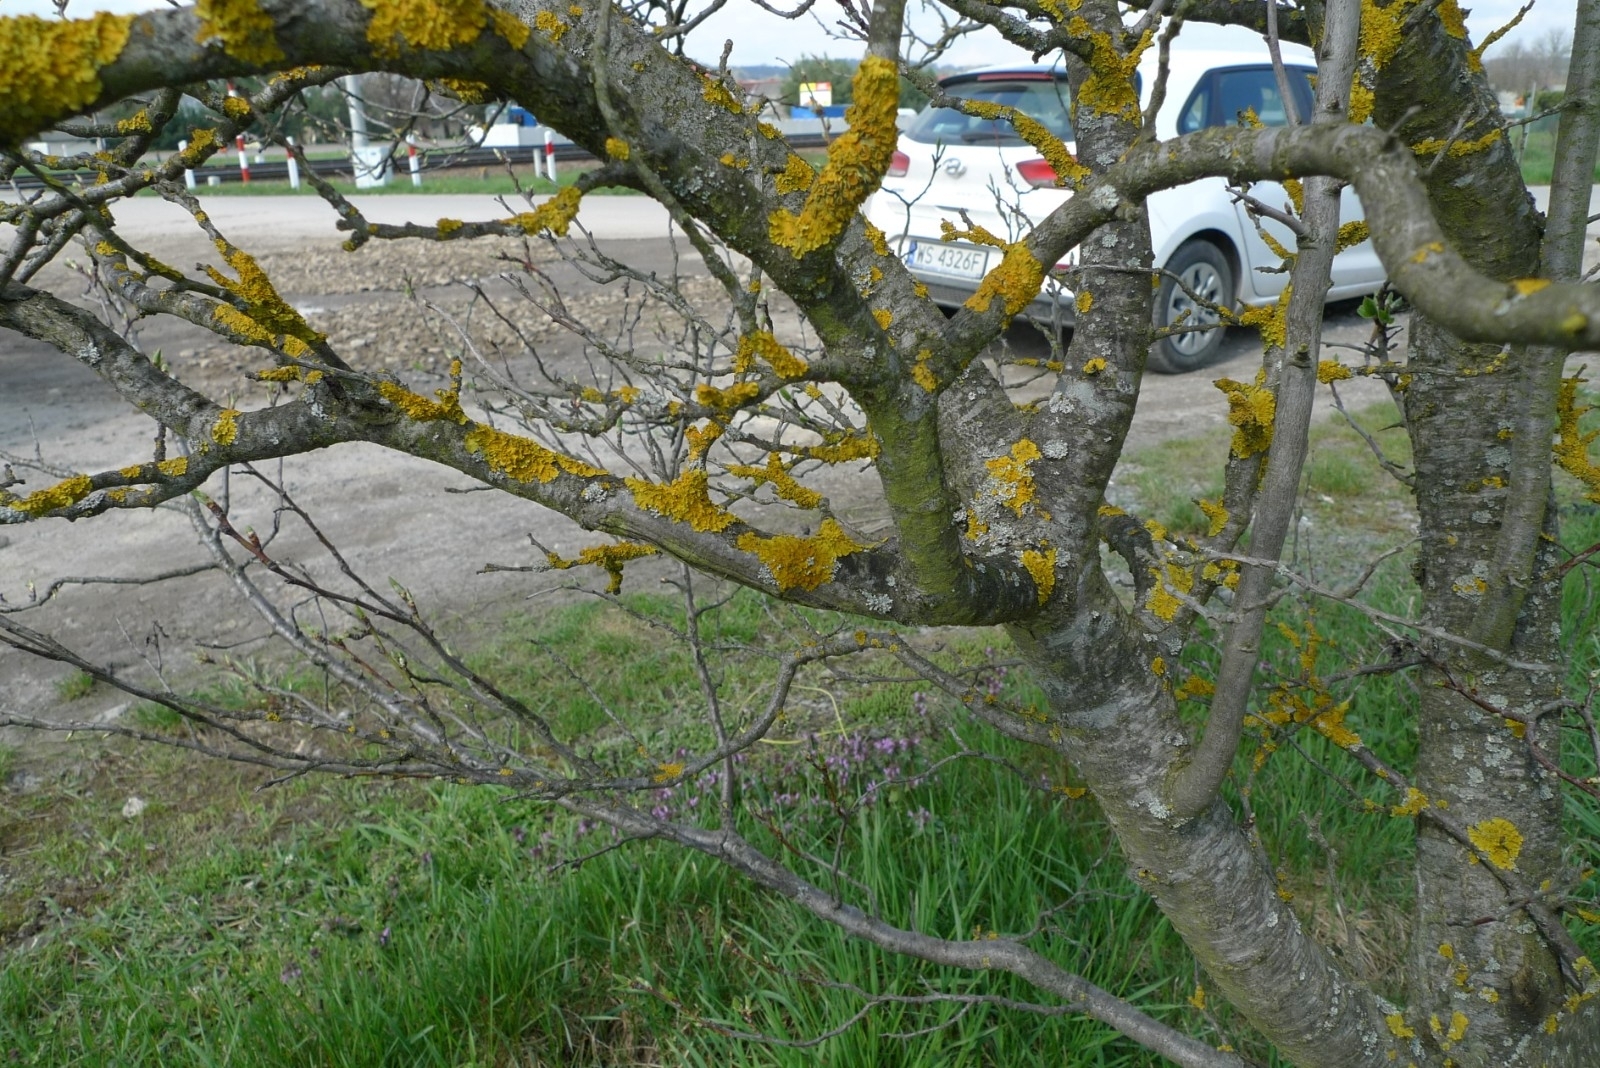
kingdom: Fungi
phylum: Ascomycota
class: Lecanoromycetes
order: Teloschistales
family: Teloschistaceae
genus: Xanthoria
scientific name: Xanthoria parietina
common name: Common orange lichen
